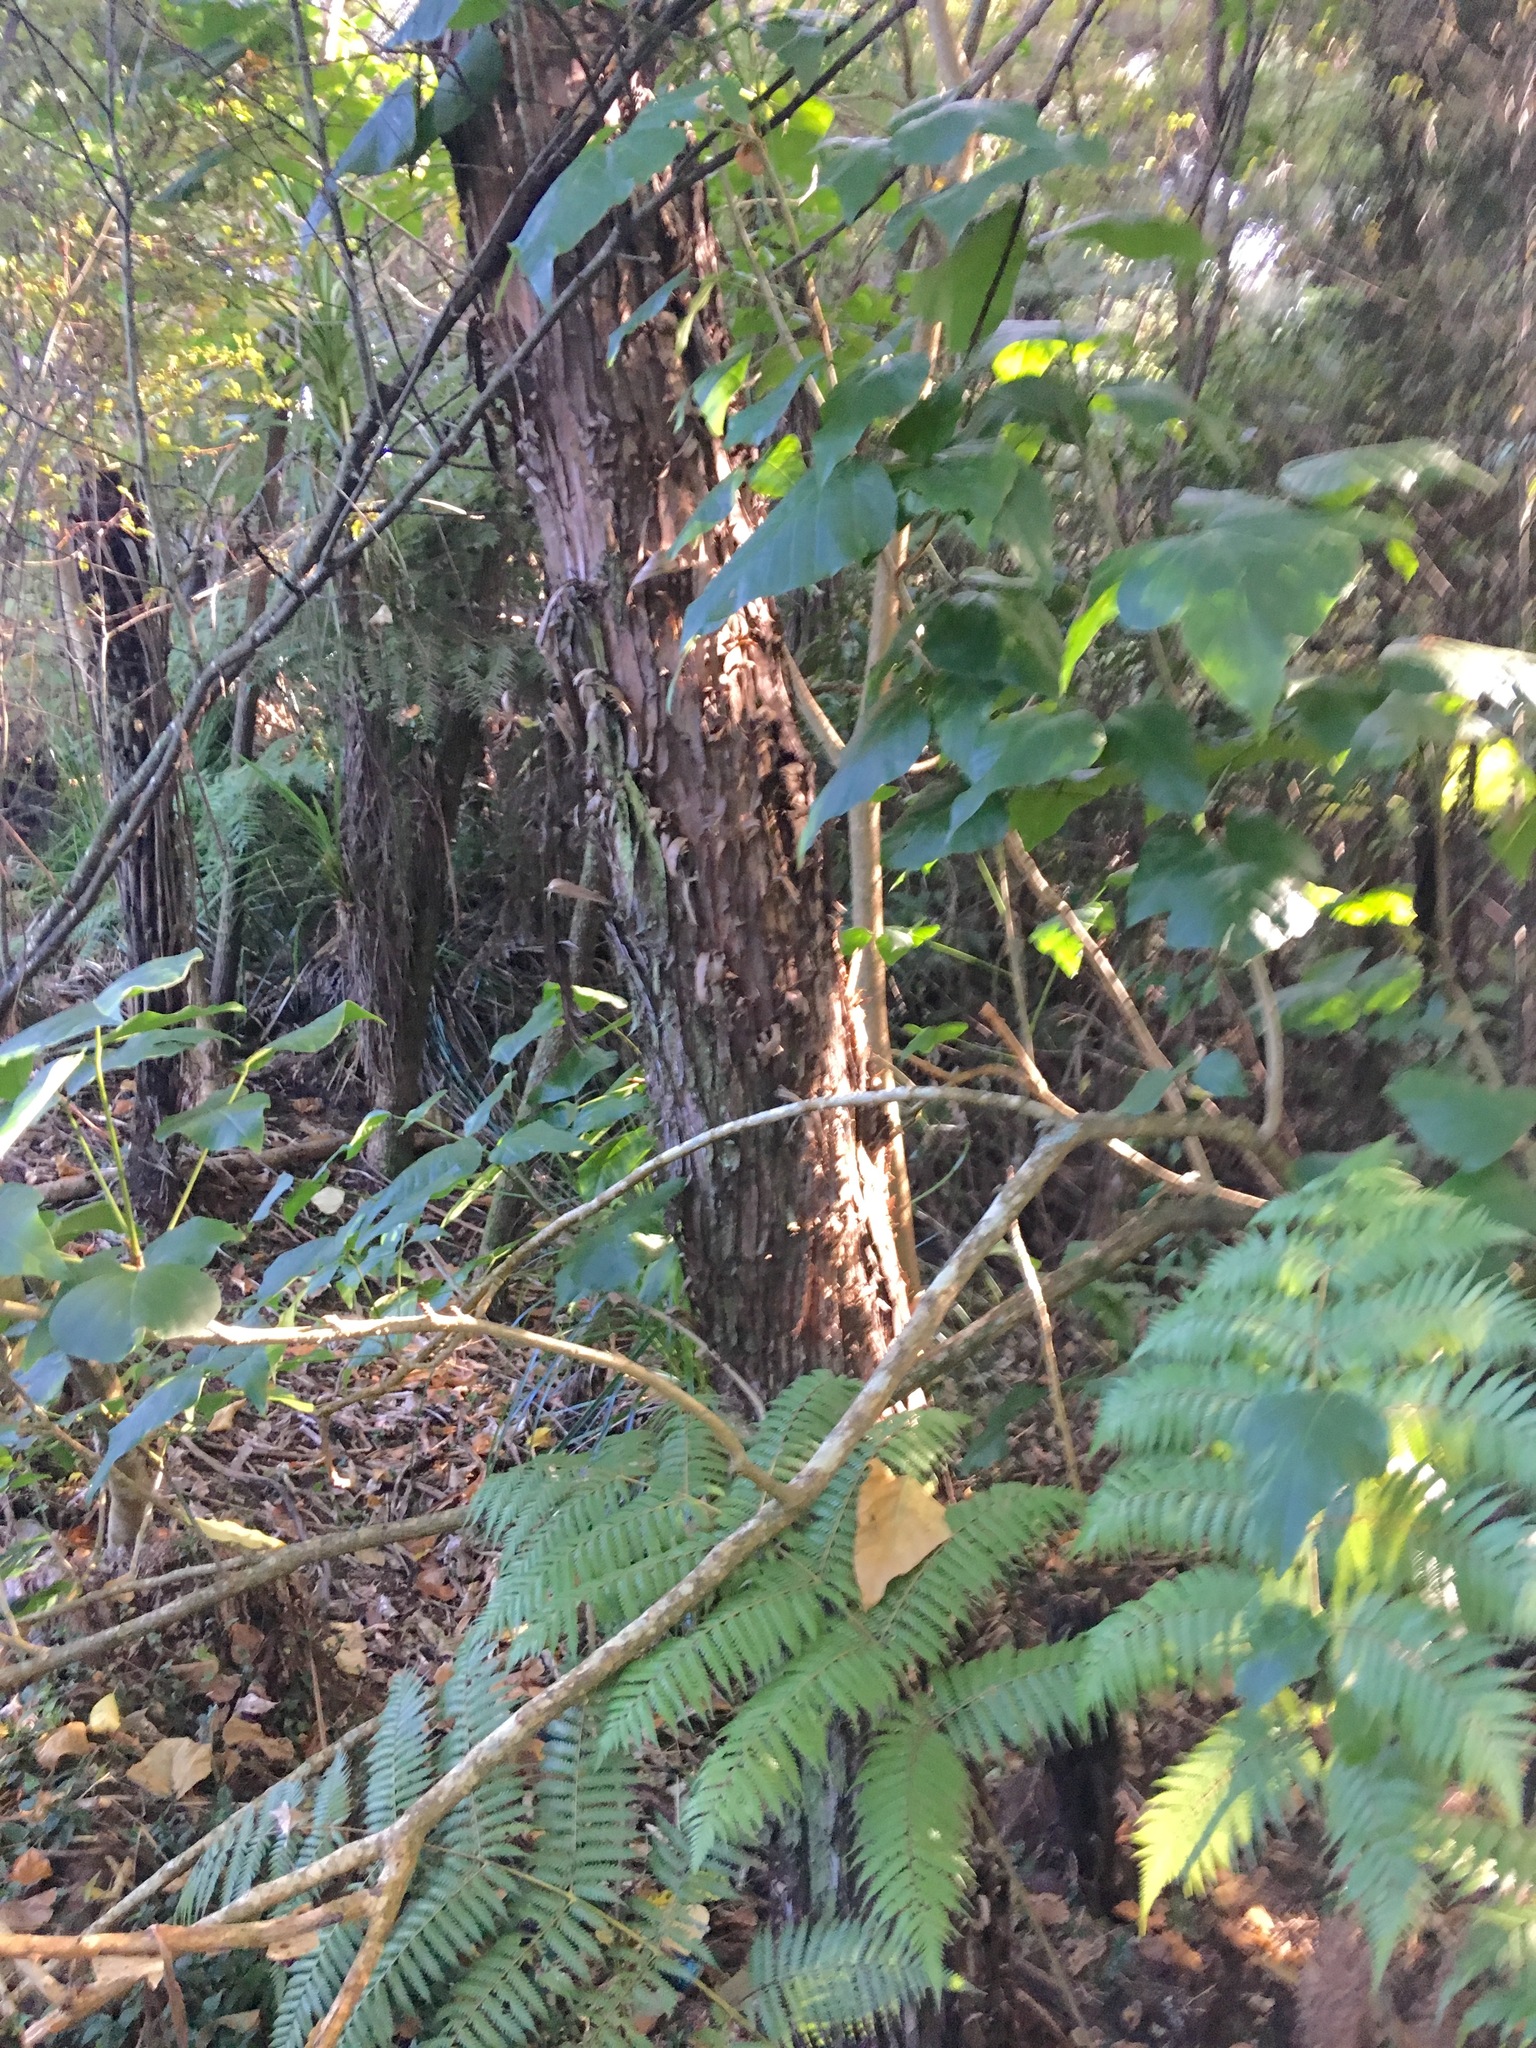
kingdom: Plantae
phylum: Tracheophyta
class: Polypodiopsida
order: Cyatheales
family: Cyatheaceae
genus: Alsophila
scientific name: Alsophila dealbata
